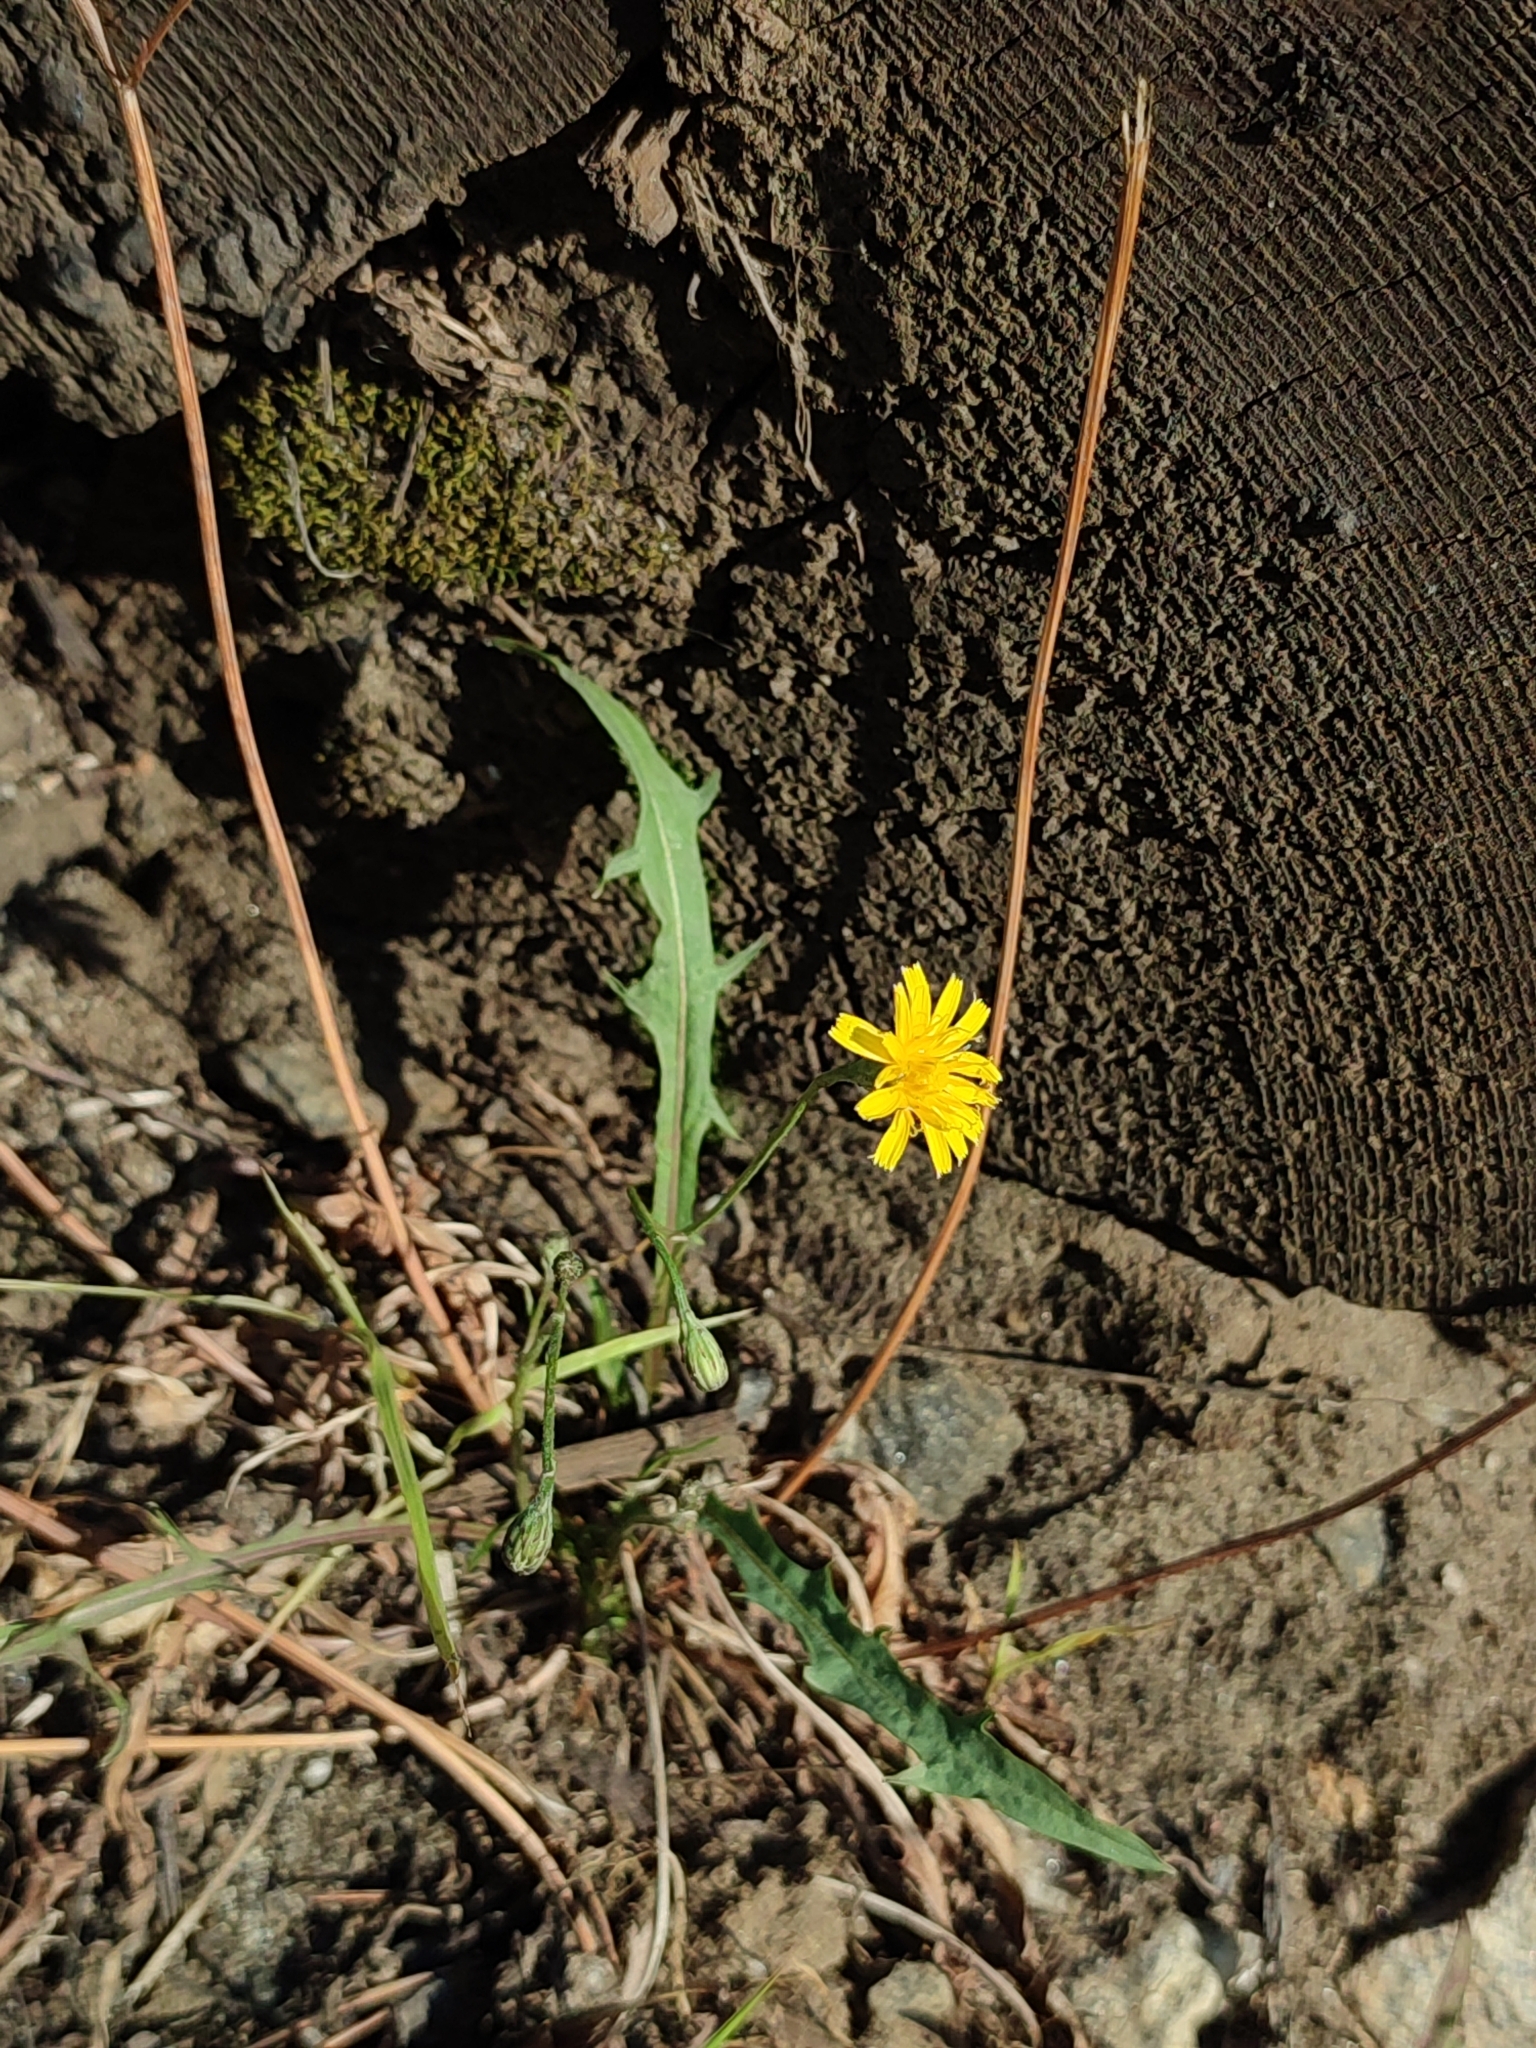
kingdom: Plantae
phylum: Tracheophyta
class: Magnoliopsida
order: Asterales
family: Asteraceae
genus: Scorzoneroides
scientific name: Scorzoneroides autumnalis
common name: Autumn hawkbit
